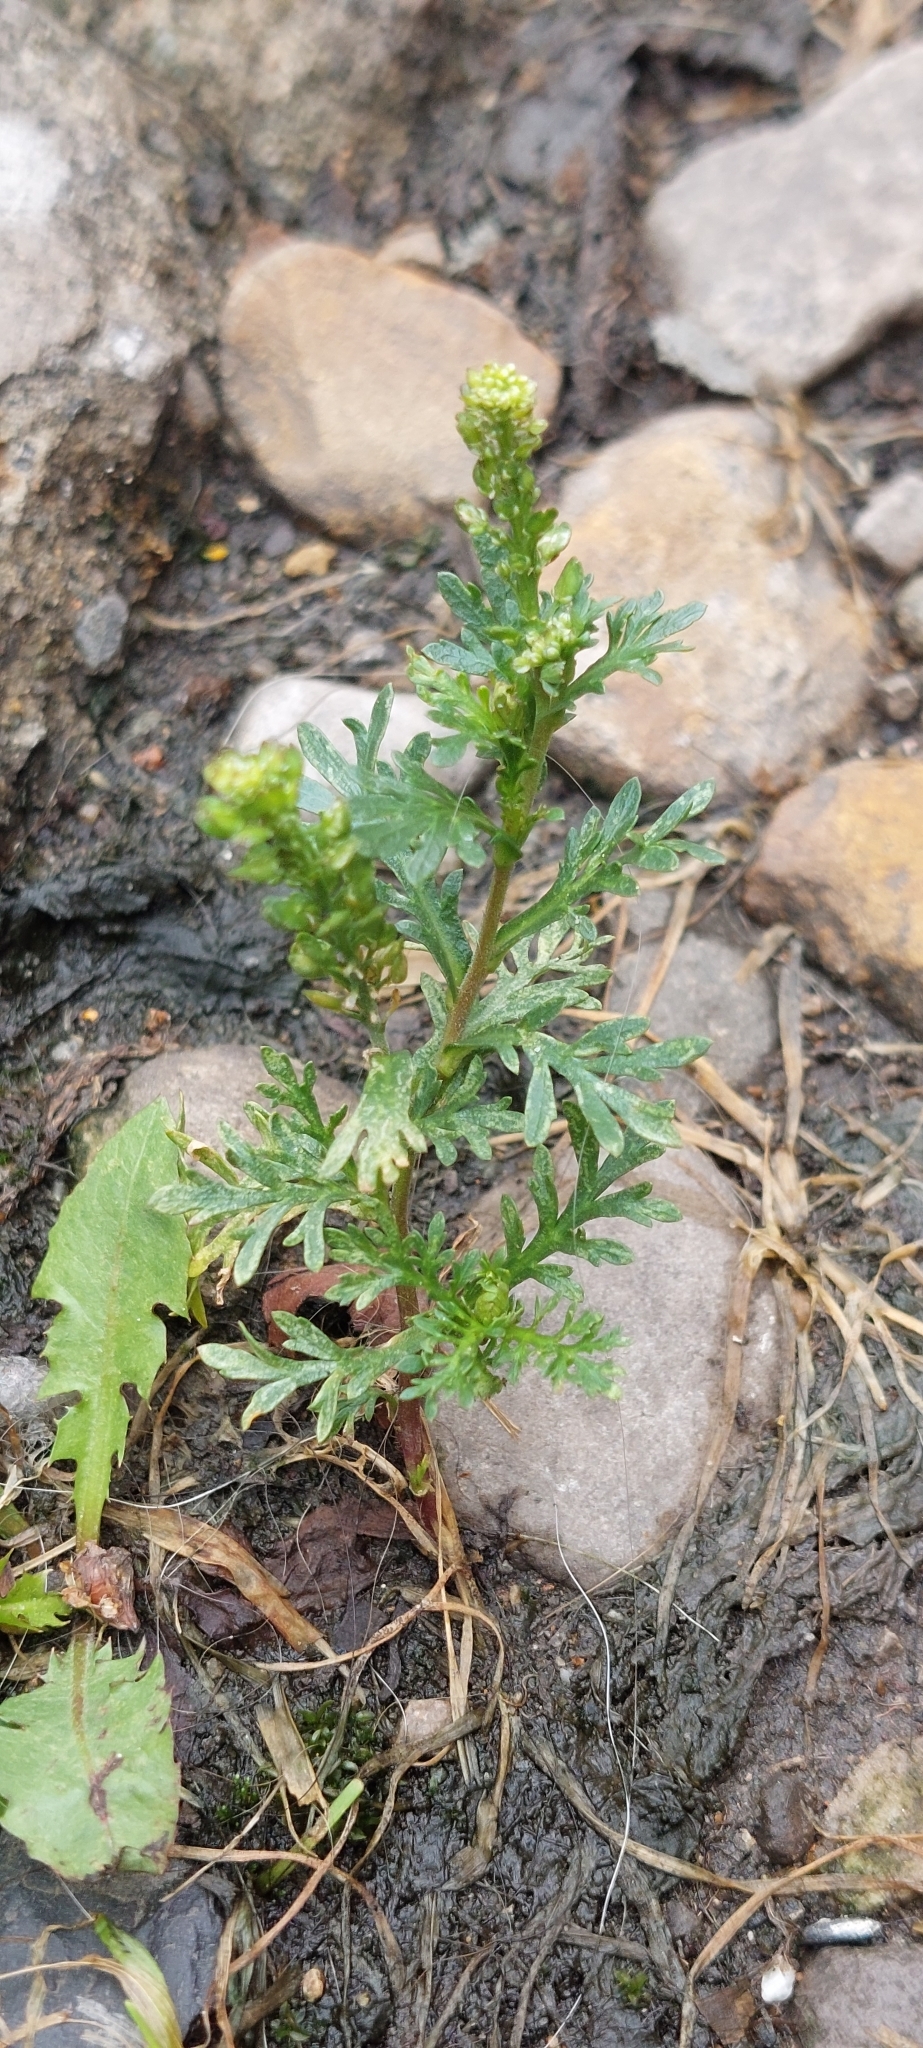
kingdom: Plantae
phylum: Tracheophyta
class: Magnoliopsida
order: Brassicales
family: Brassicaceae
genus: Lepidium
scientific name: Lepidium bipinnatifidum
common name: Wayside pepperwort
